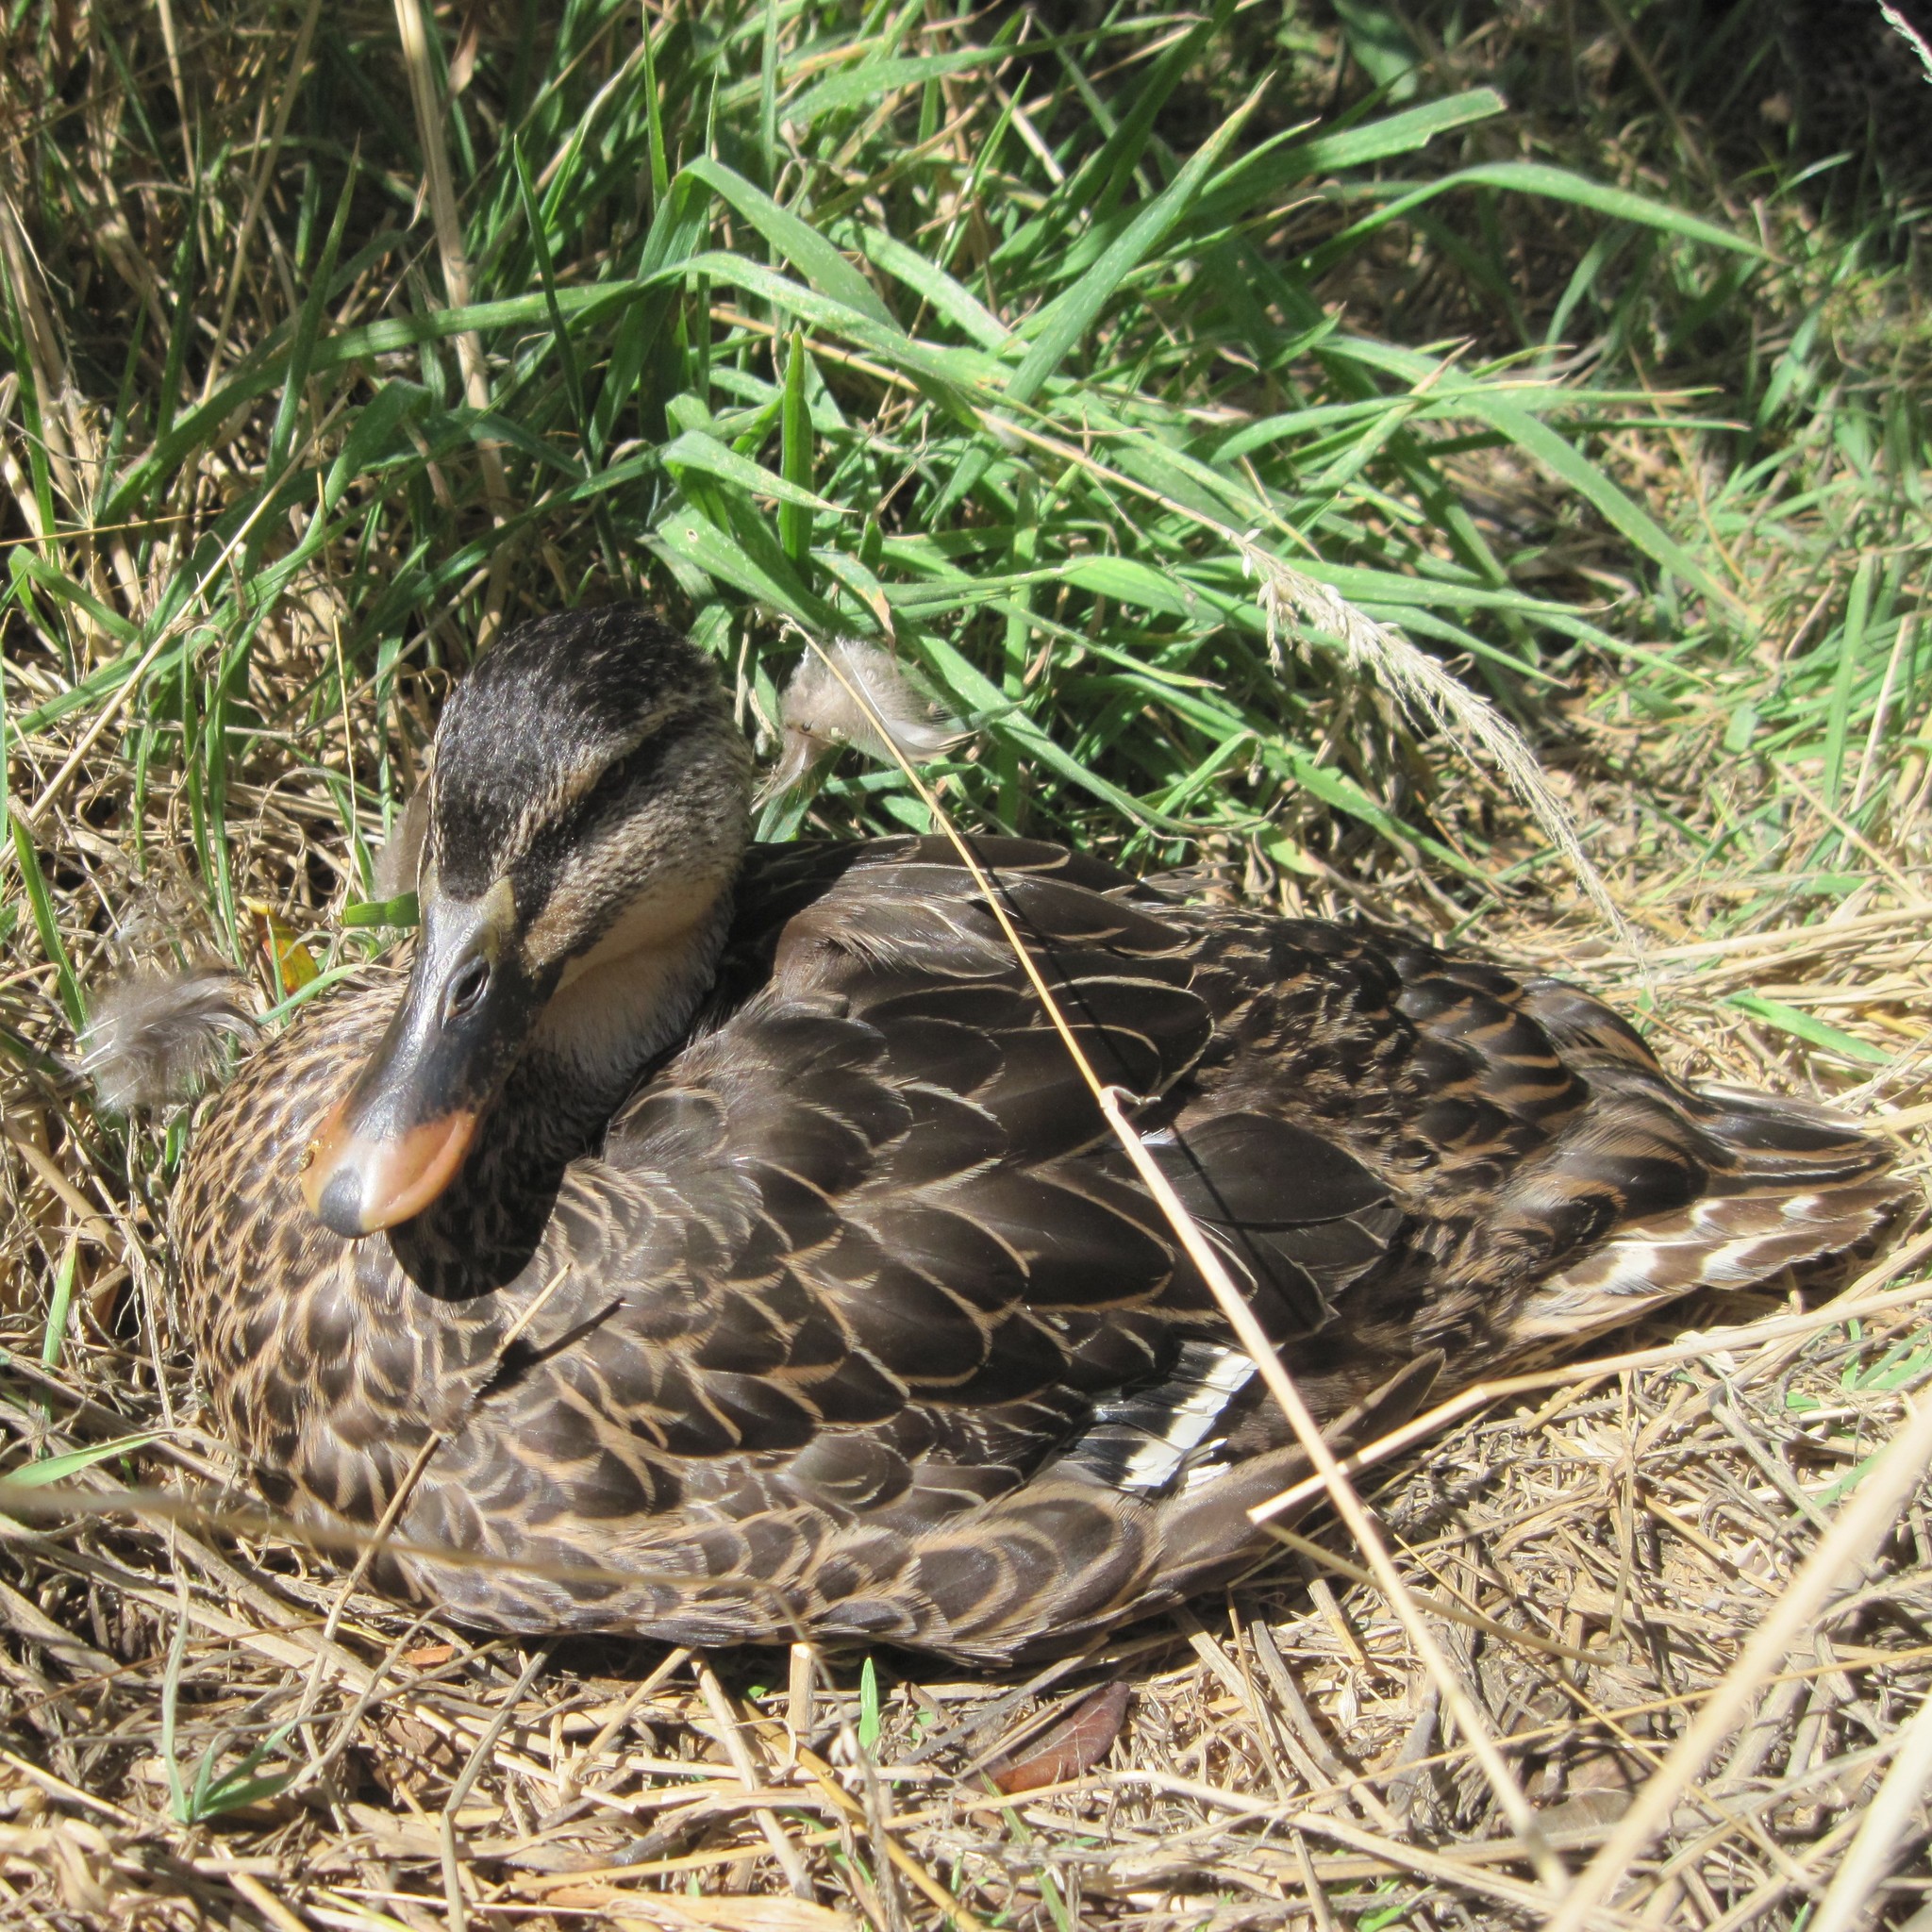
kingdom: Animalia
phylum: Chordata
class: Aves
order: Anseriformes
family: Anatidae
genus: Anas
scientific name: Anas
